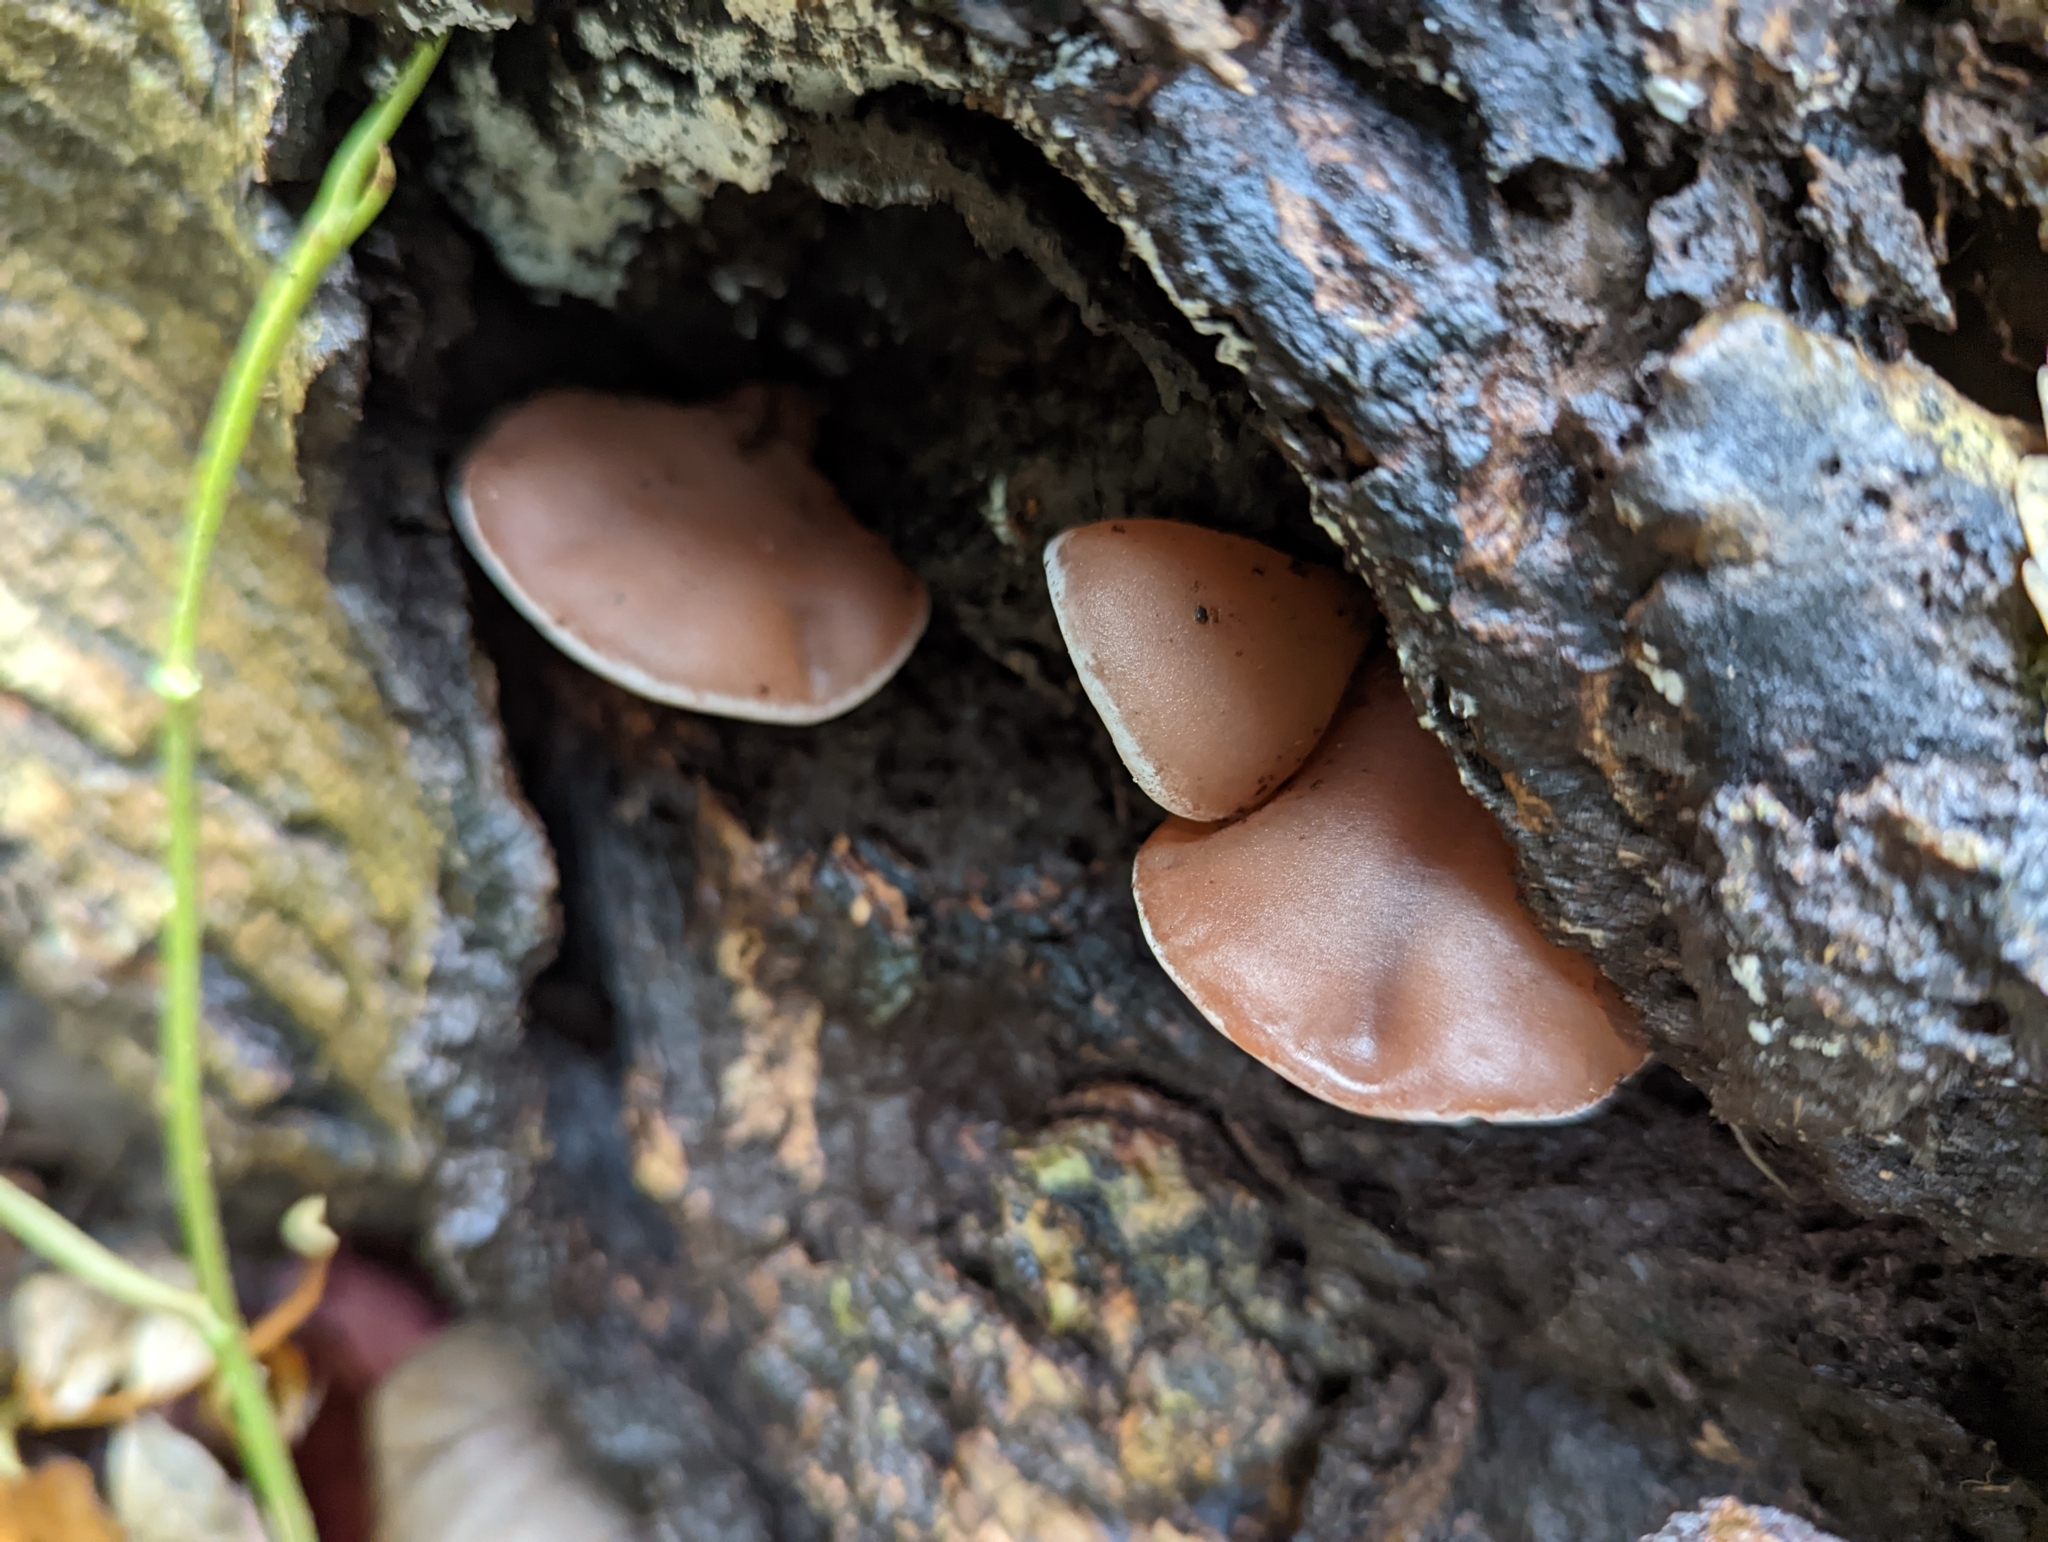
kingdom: Fungi
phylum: Basidiomycota
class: Agaricomycetes
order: Auriculariales
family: Auriculariaceae
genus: Auricularia
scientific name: Auricularia auricula-judae
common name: Jelly ear
